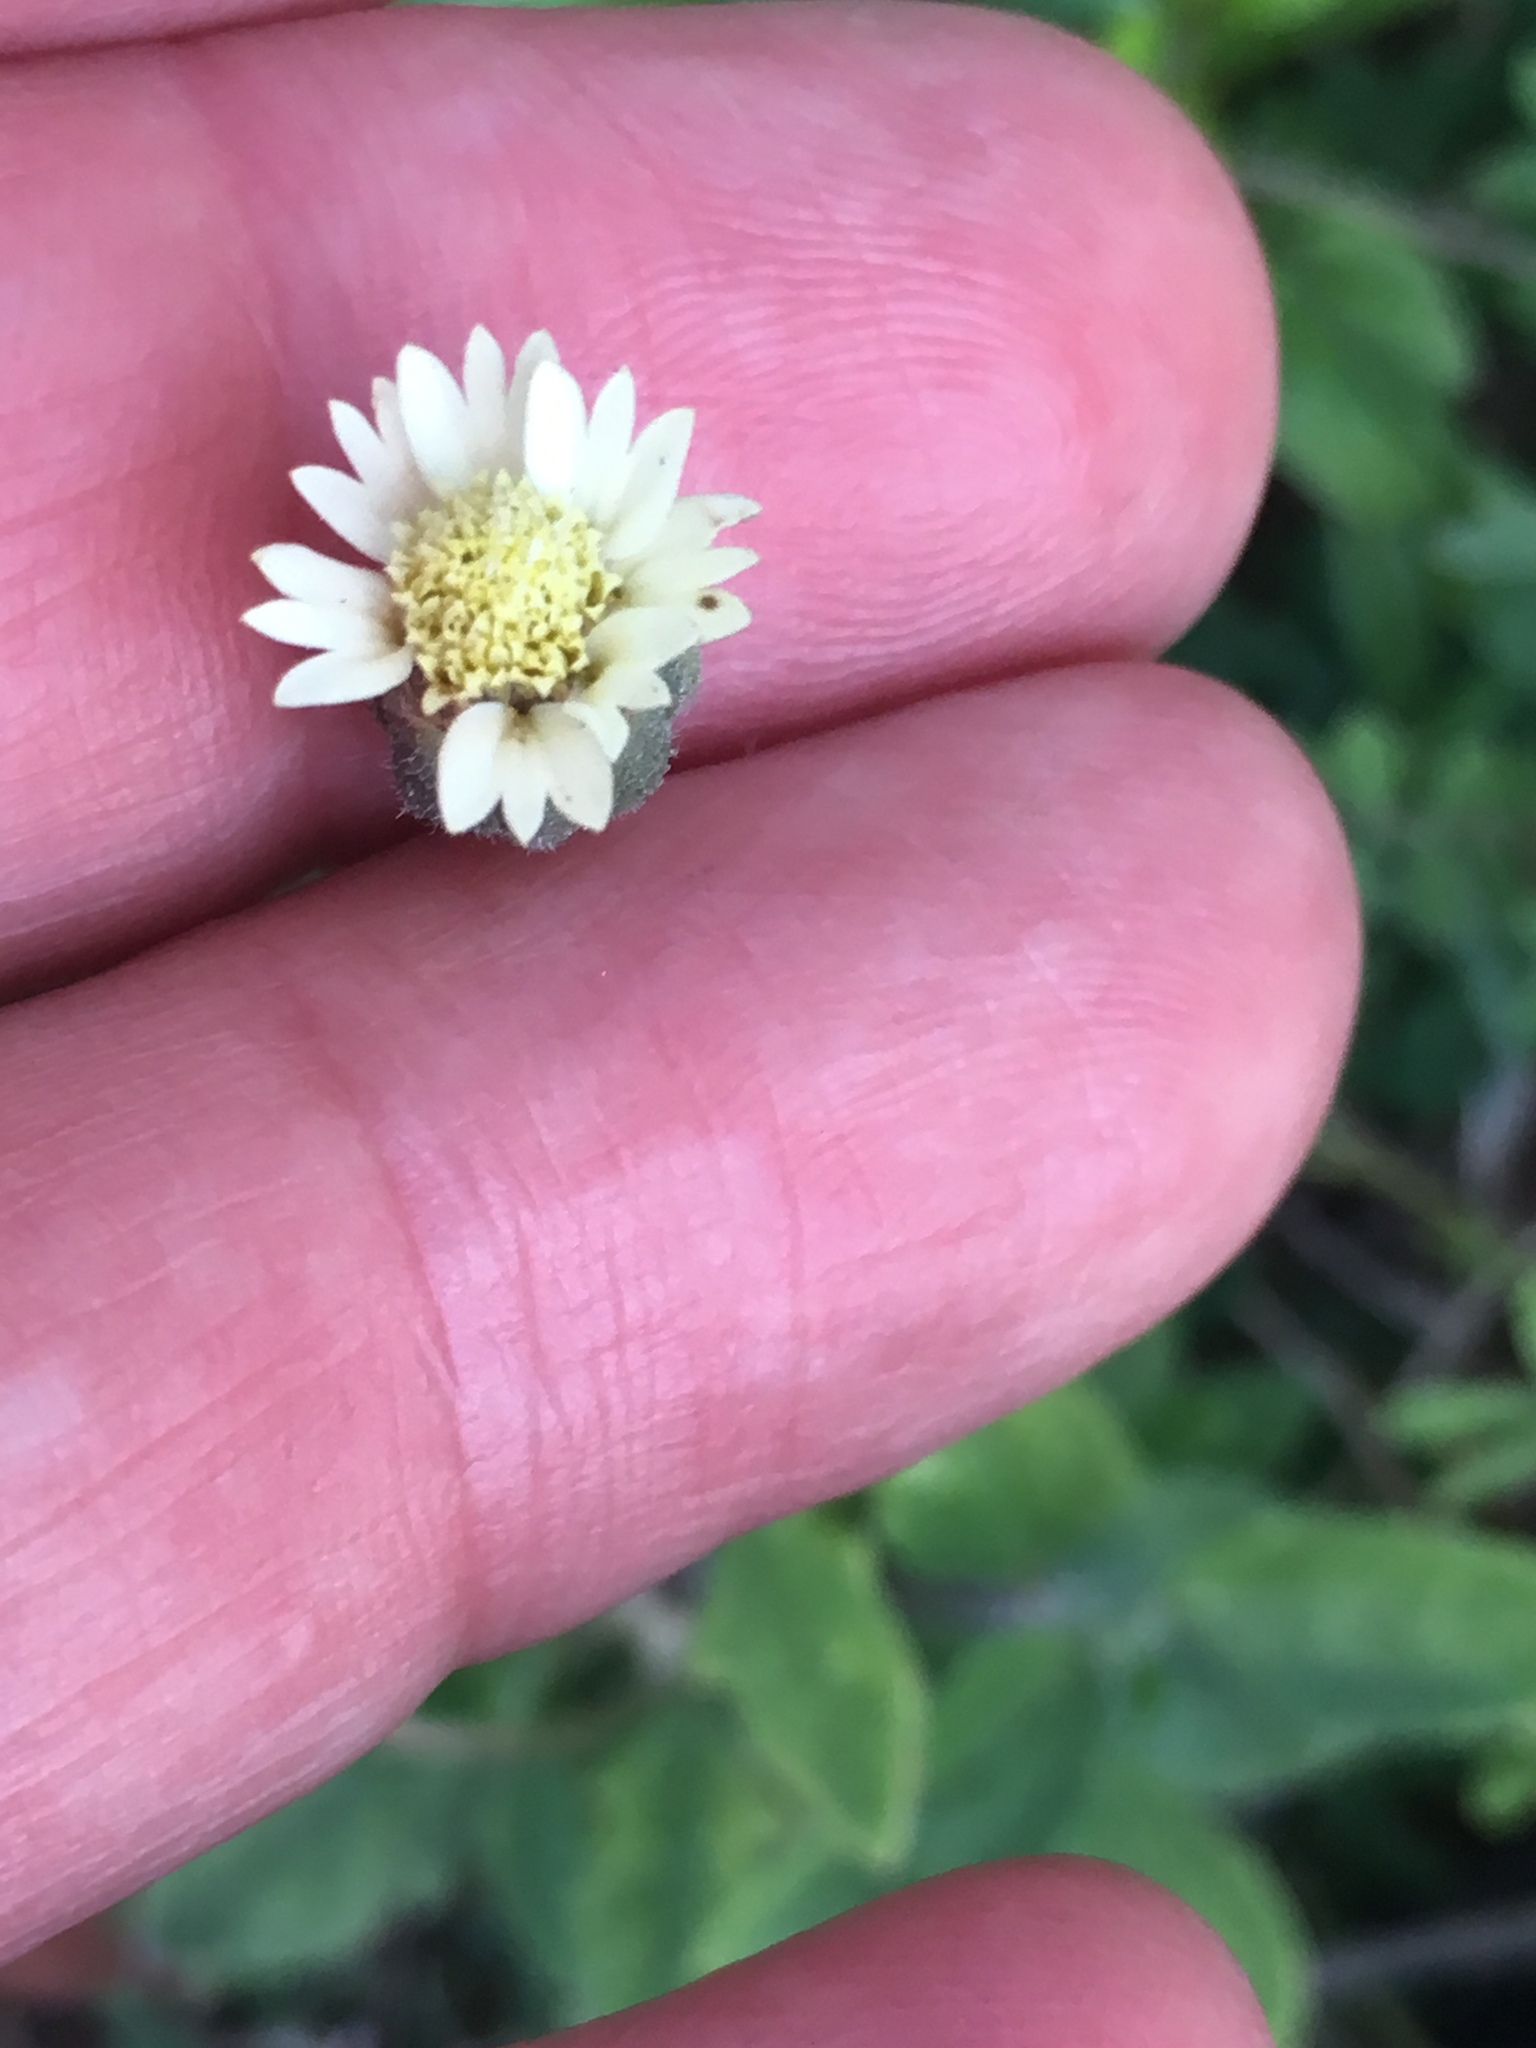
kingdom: Plantae
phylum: Tracheophyta
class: Magnoliopsida
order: Asterales
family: Asteraceae
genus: Tridax
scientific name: Tridax procumbens
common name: Coatbuttons
